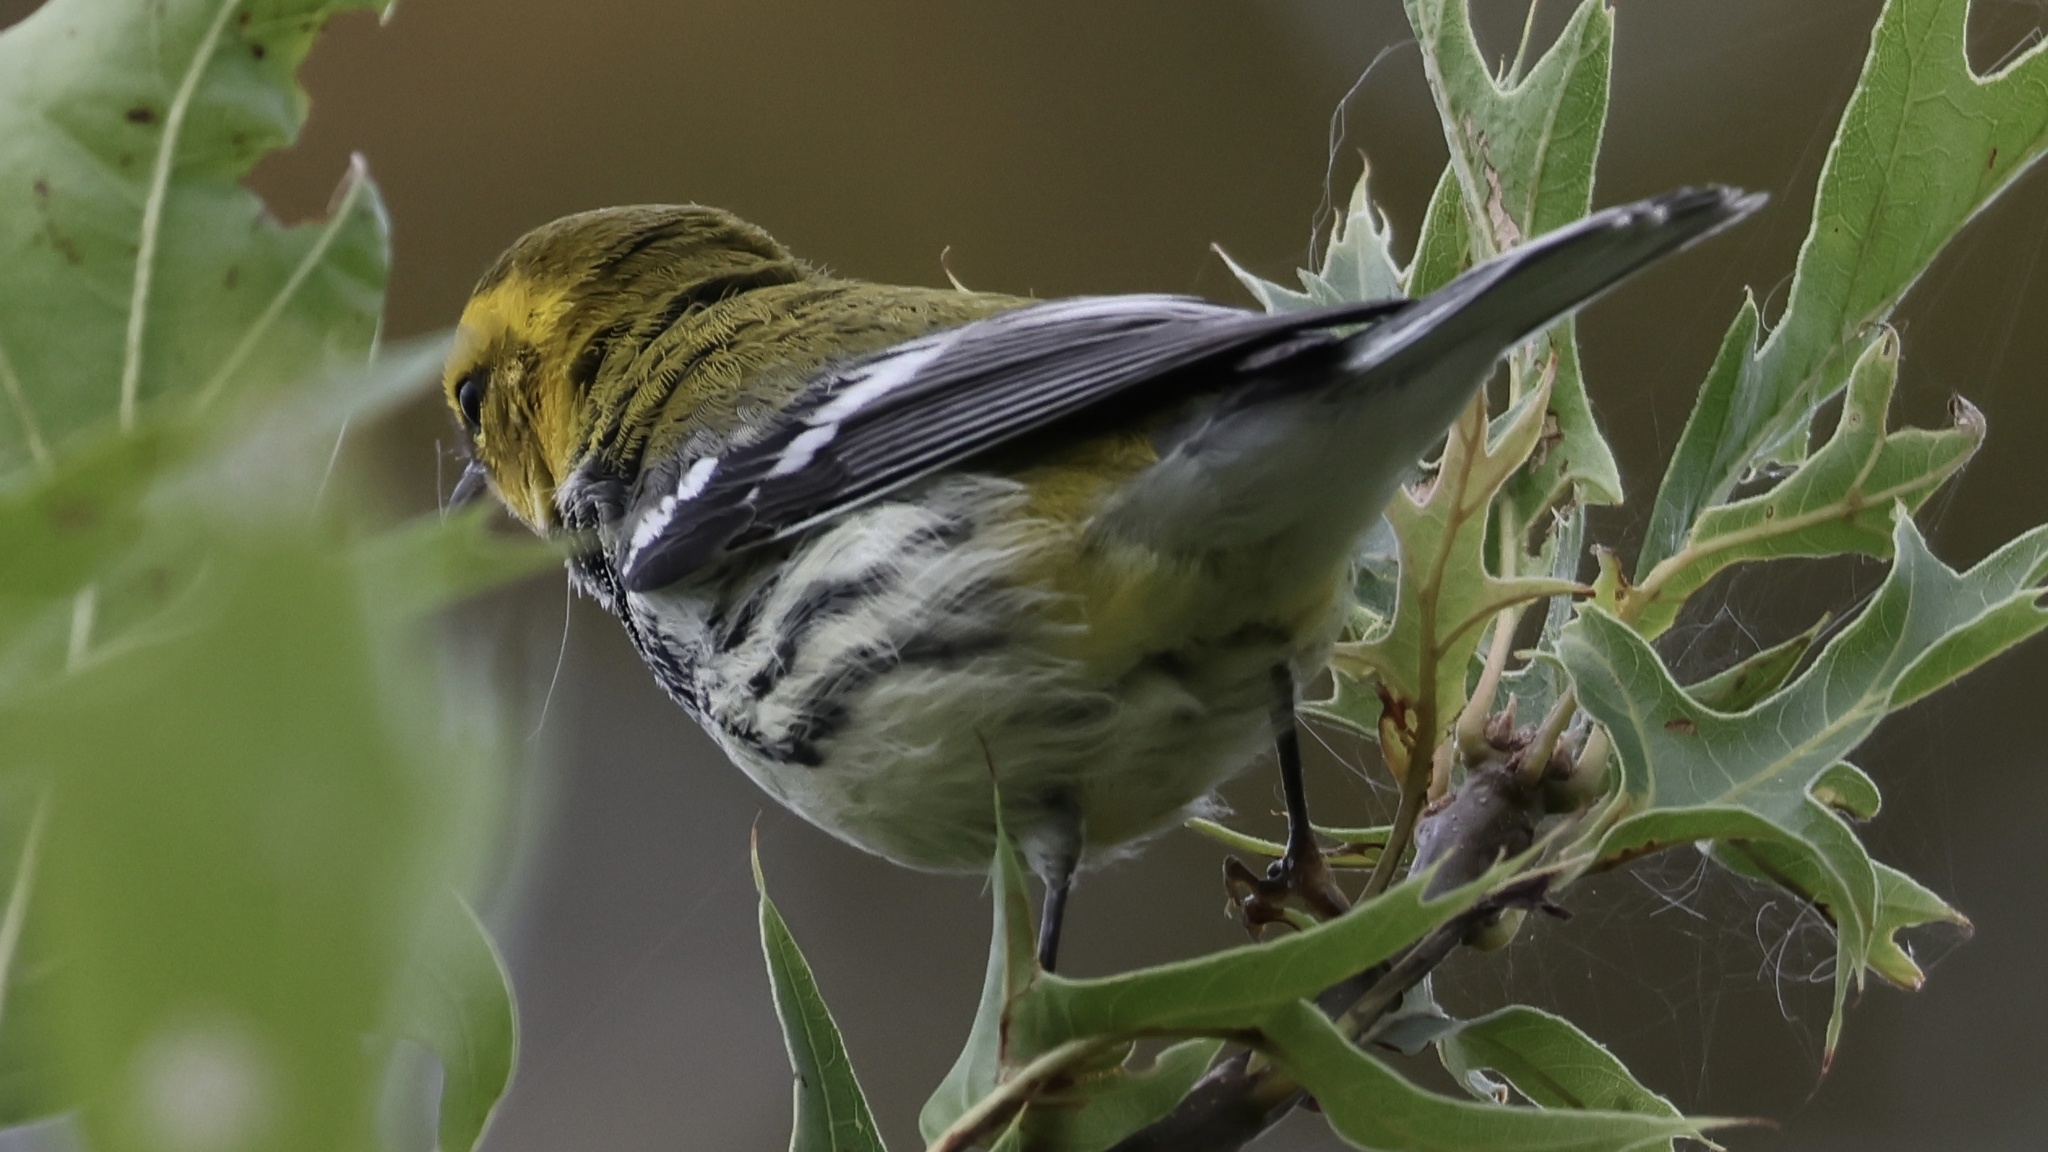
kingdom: Animalia
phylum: Chordata
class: Aves
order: Passeriformes
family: Parulidae
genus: Setophaga
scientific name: Setophaga virens
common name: Black-throated green warbler
